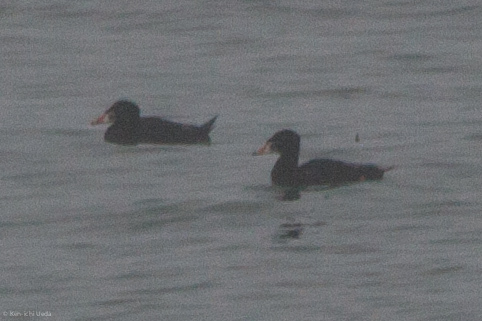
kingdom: Animalia
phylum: Chordata
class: Aves
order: Anseriformes
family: Anatidae
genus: Melanitta
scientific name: Melanitta perspicillata
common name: Surf scoter
